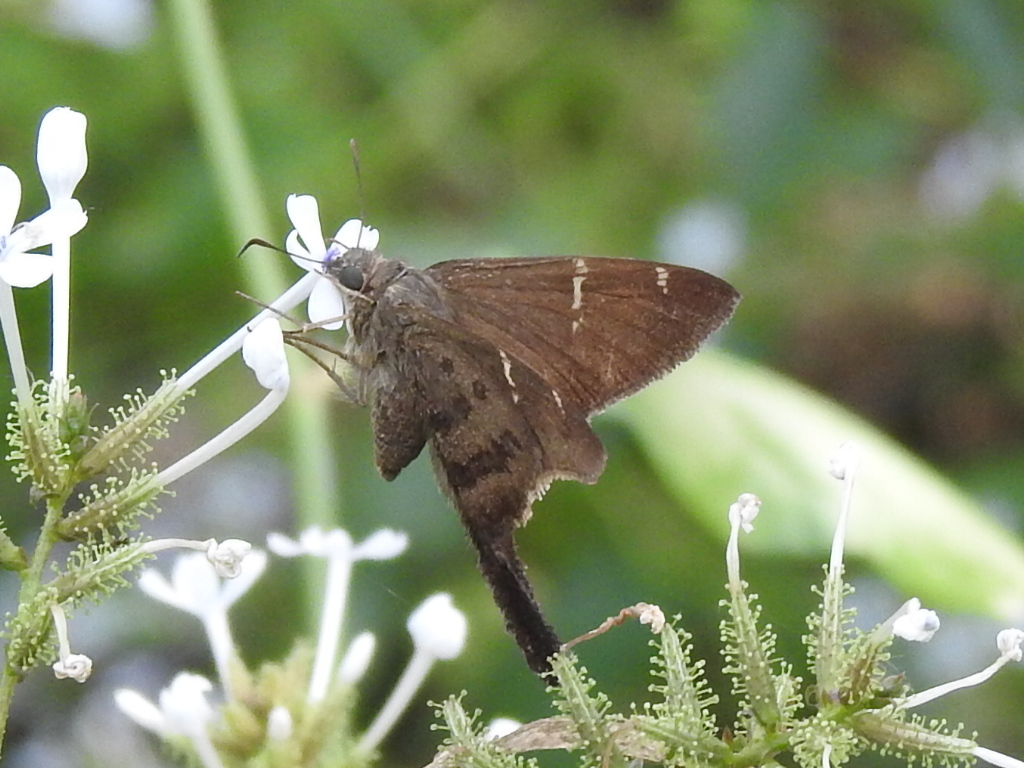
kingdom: Animalia
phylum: Arthropoda
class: Insecta
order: Lepidoptera
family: Hesperiidae
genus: Urbanus
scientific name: Urbanus procne
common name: Brown longtail
